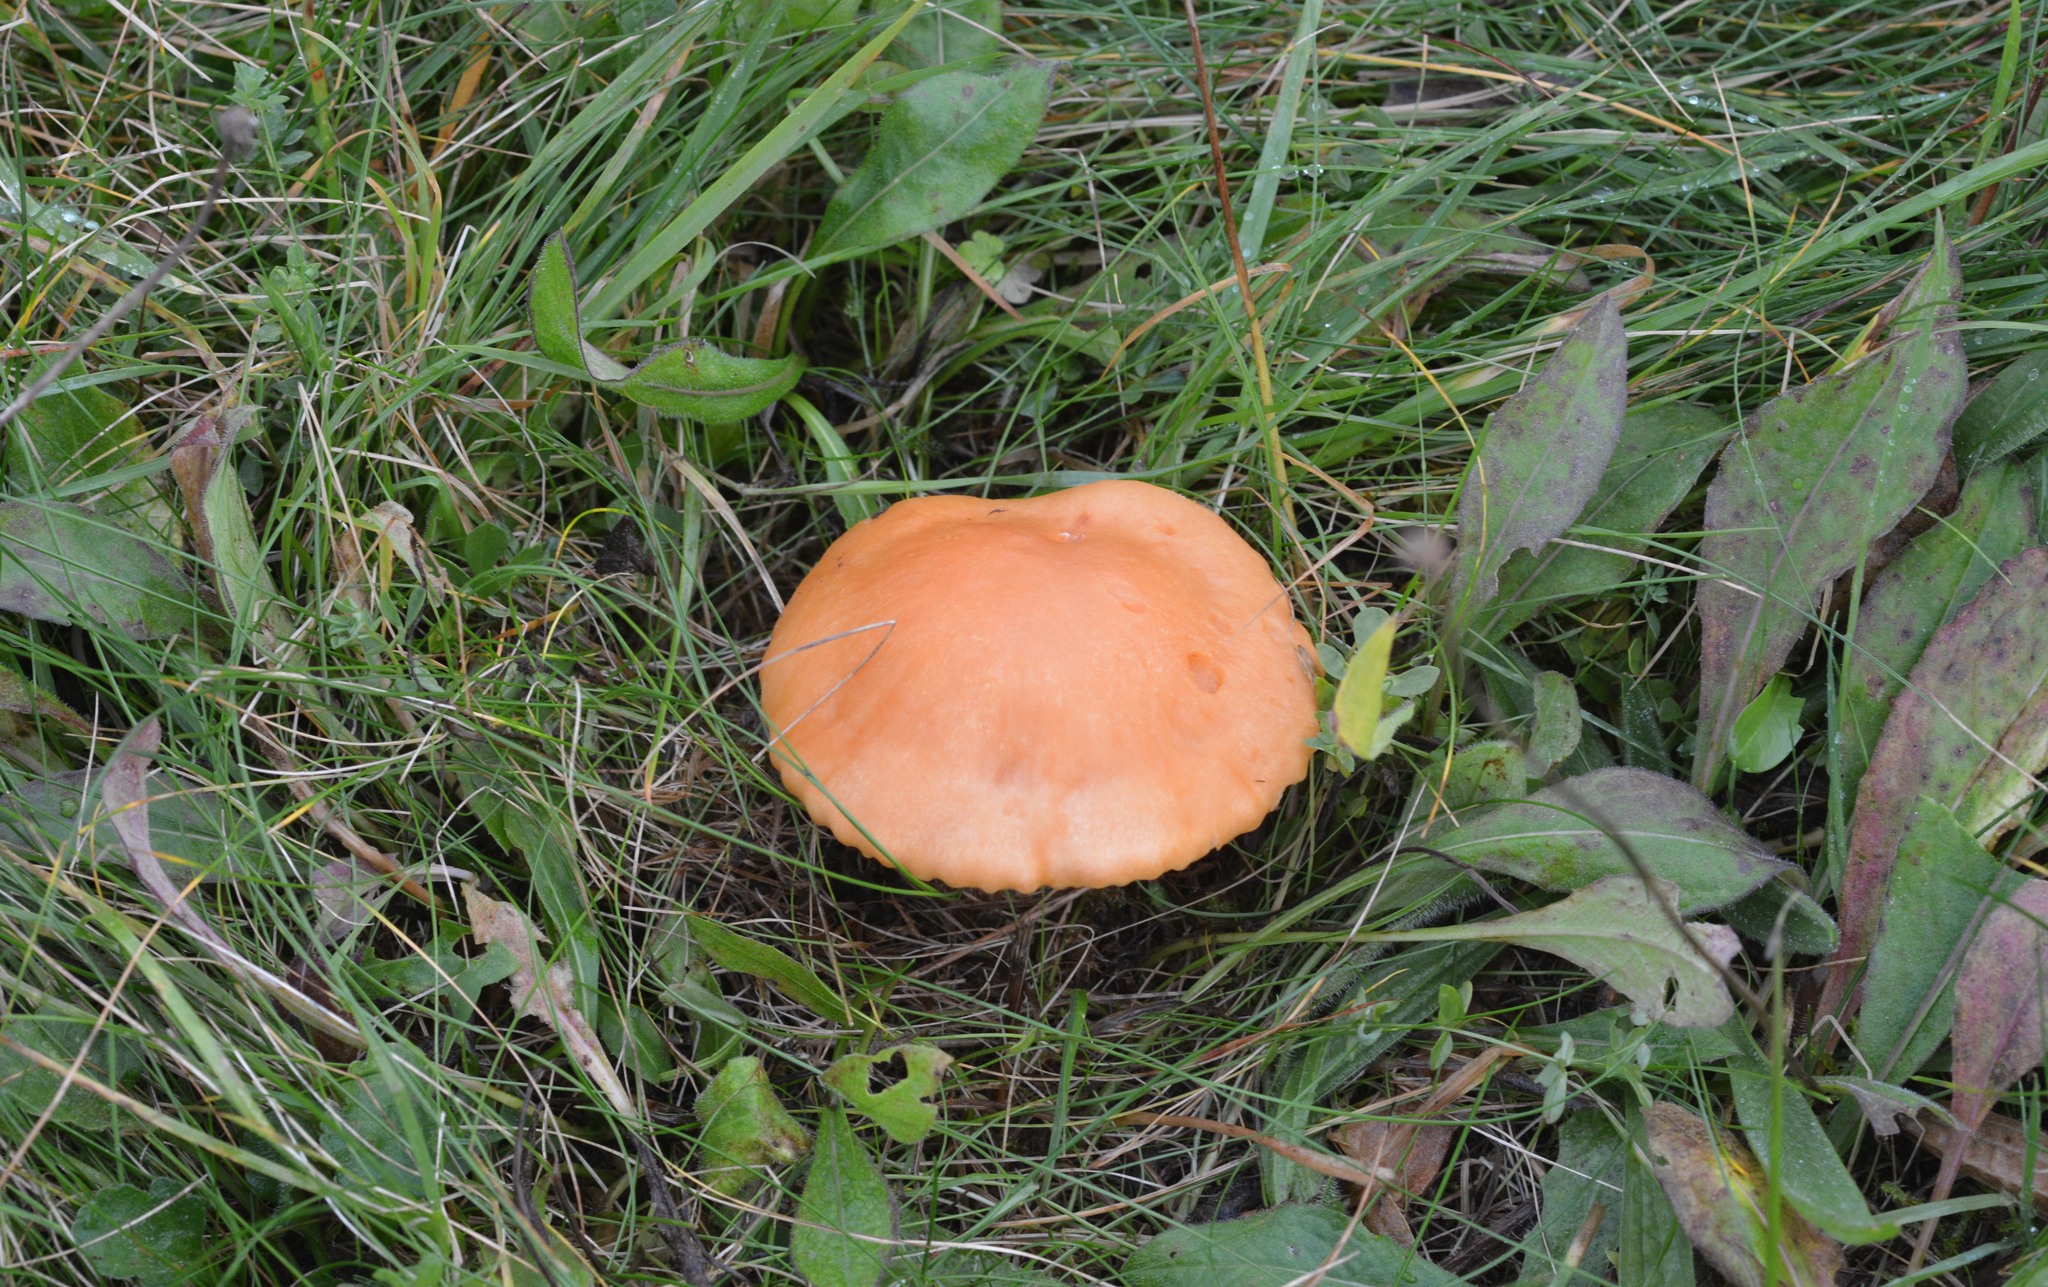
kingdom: Fungi
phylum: Basidiomycota
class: Agaricomycetes
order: Agaricales
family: Hygrophoraceae
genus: Cuphophyllus
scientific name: Cuphophyllus pratensis
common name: Meadow waxcap
